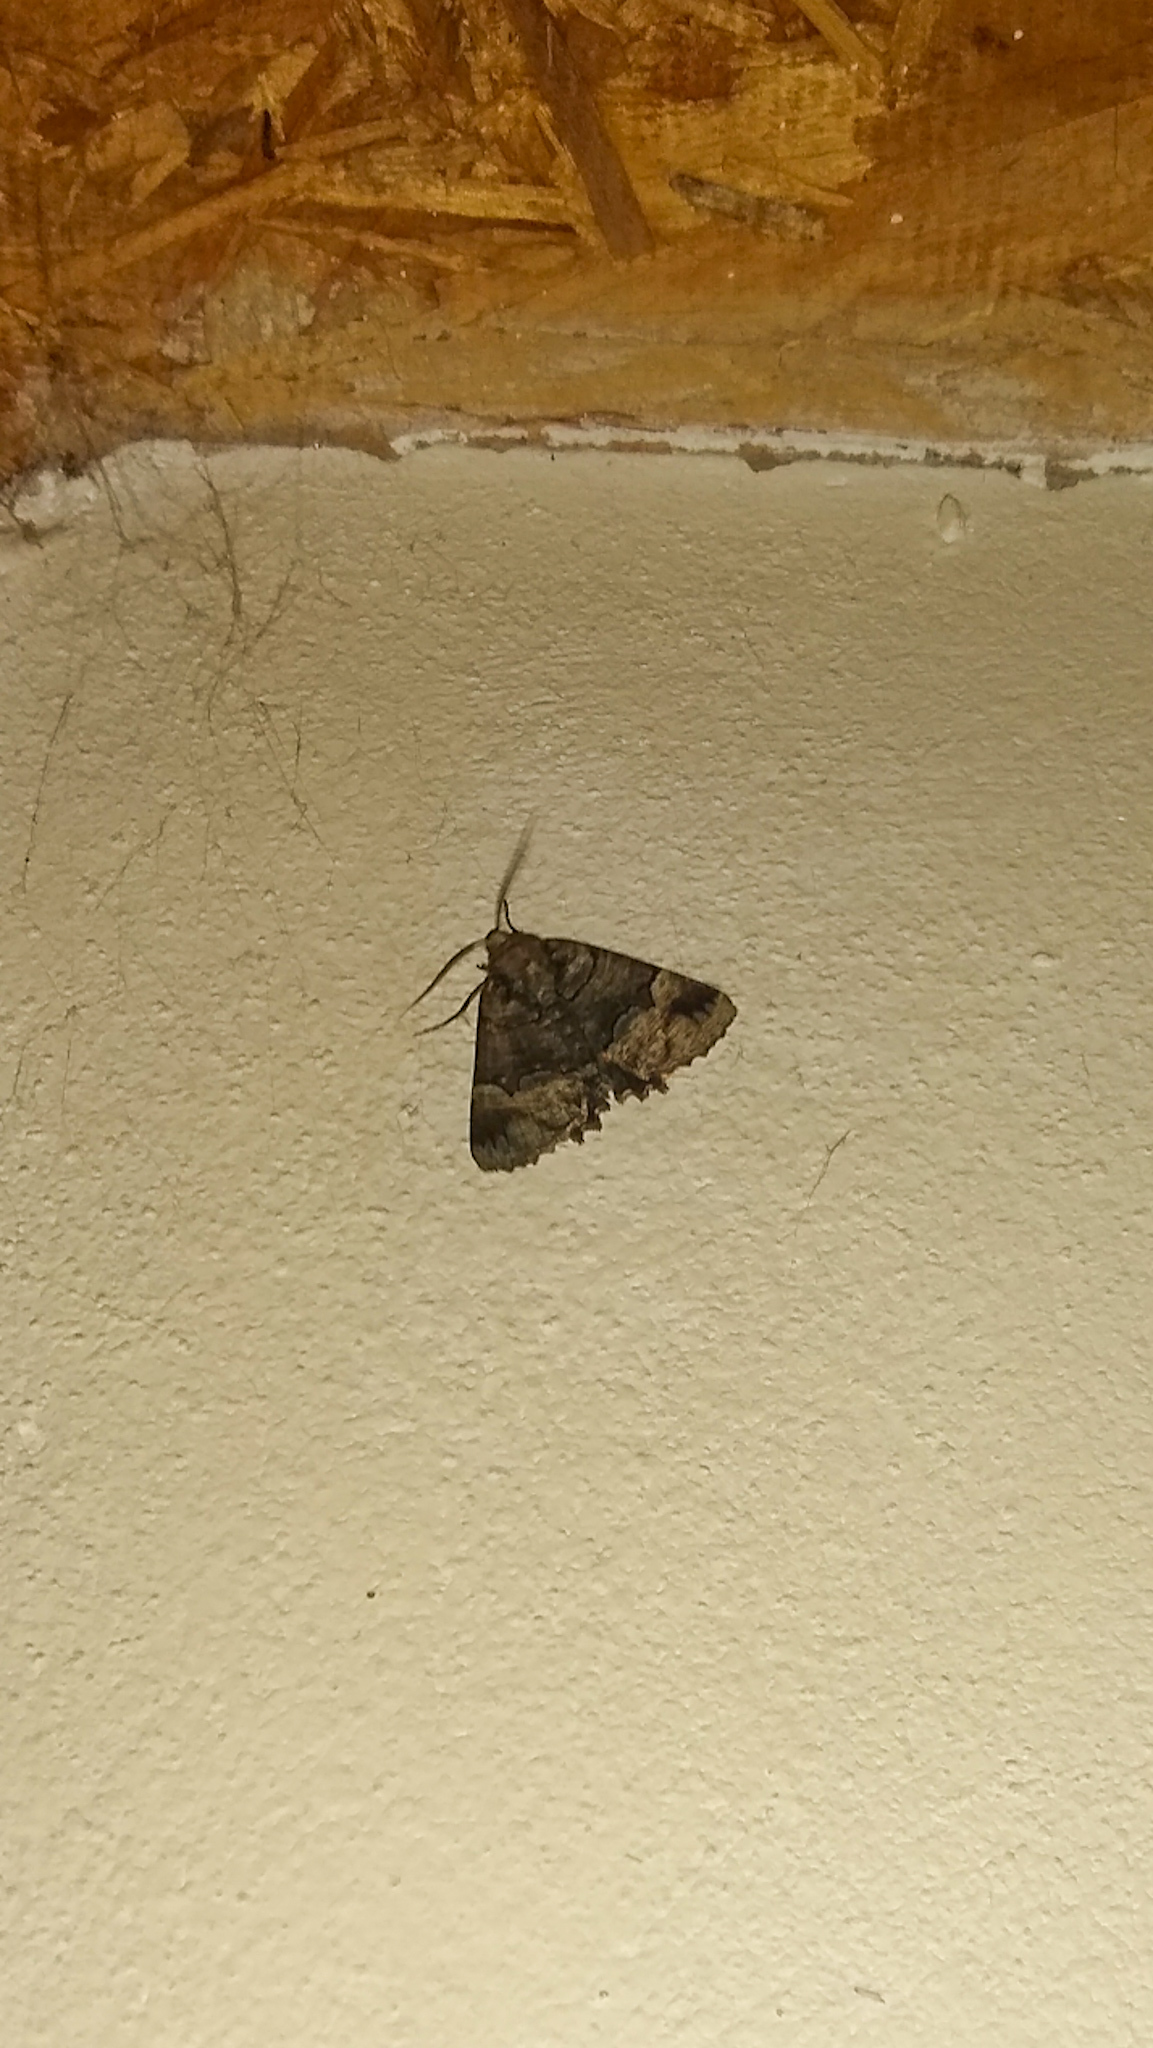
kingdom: Animalia
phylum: Arthropoda
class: Insecta
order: Lepidoptera
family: Geometridae
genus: Catophoenissa
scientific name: Catophoenissa dibapha
